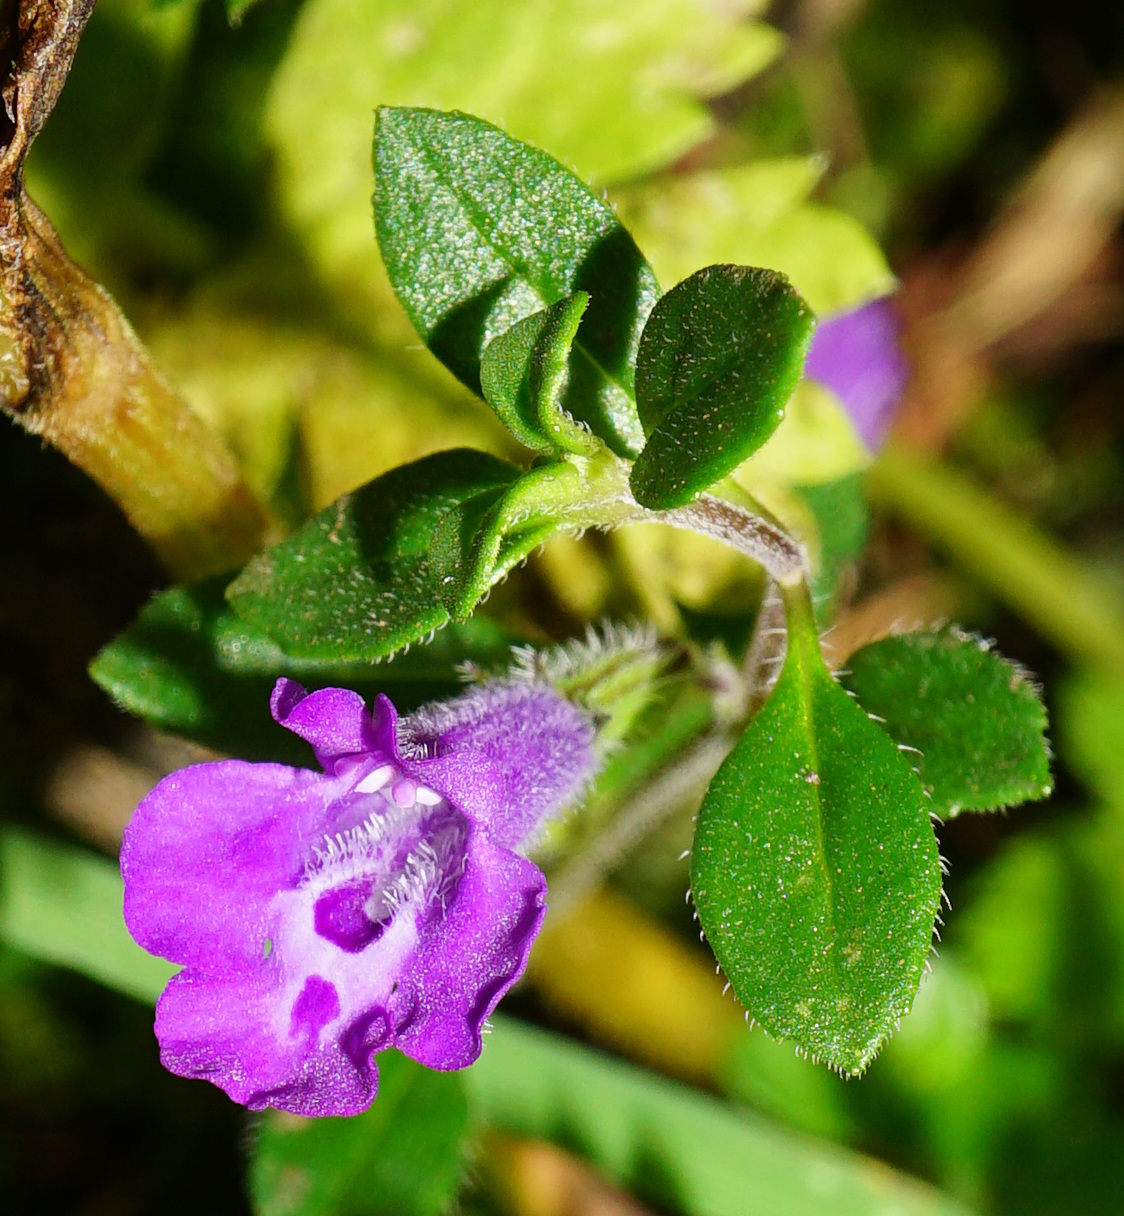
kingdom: Plantae
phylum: Tracheophyta
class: Magnoliopsida
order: Lamiales
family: Lamiaceae
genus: Clinopodium
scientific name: Clinopodium alpinum
